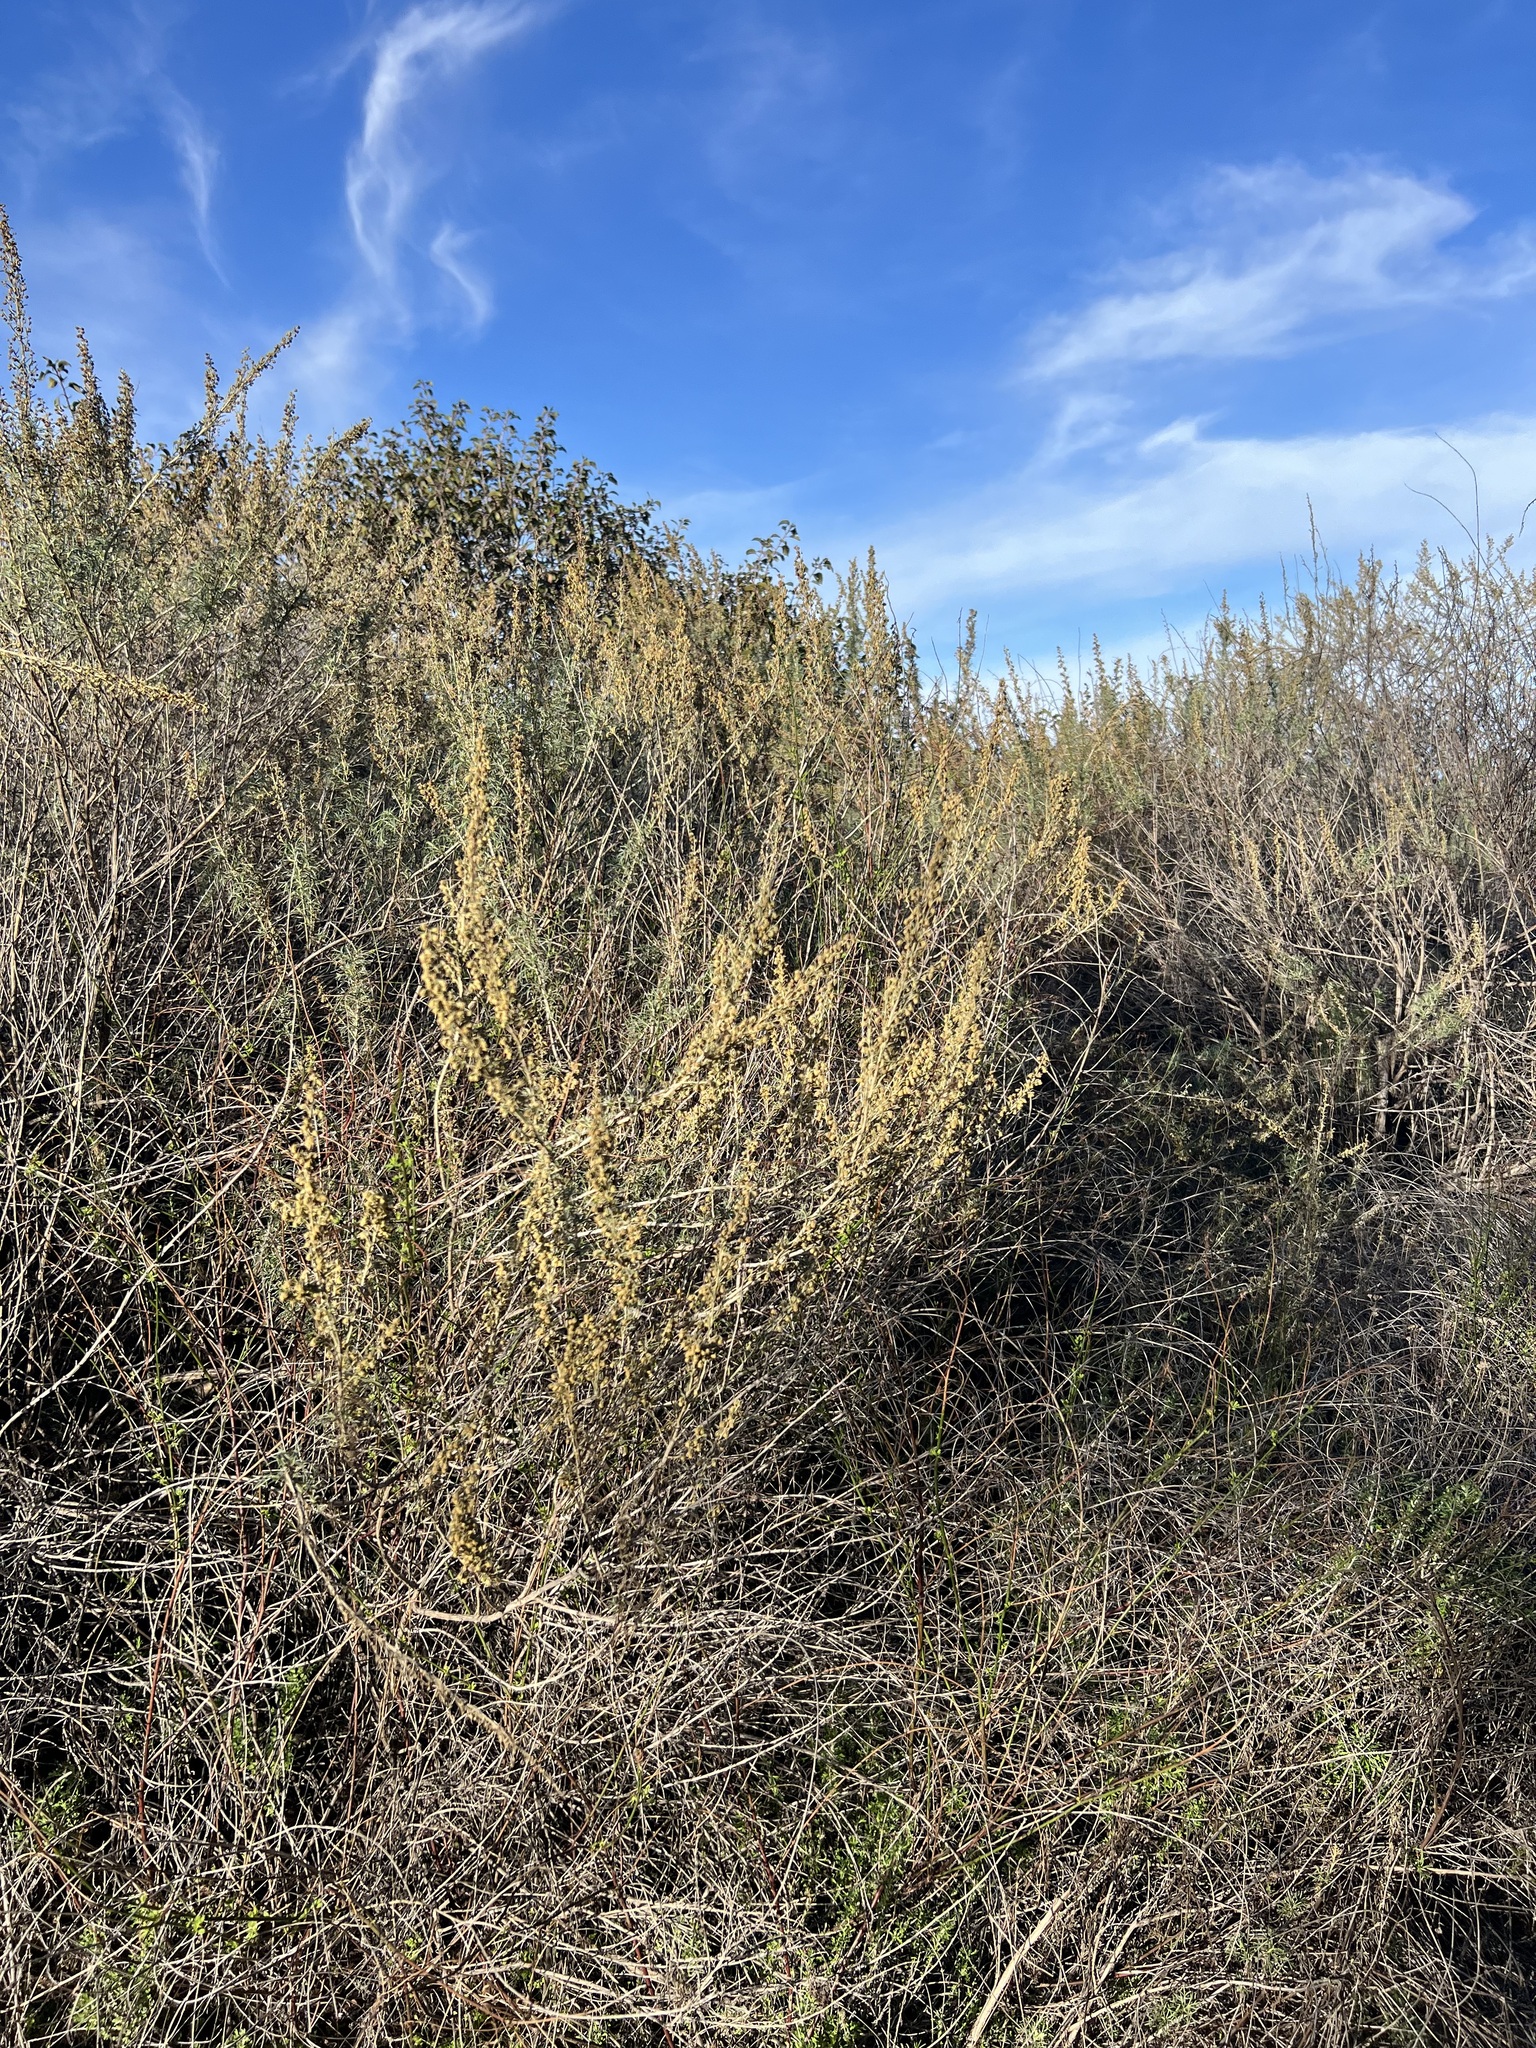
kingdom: Plantae
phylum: Tracheophyta
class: Magnoliopsida
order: Asterales
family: Asteraceae
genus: Artemisia
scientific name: Artemisia californica
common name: California sagebrush
